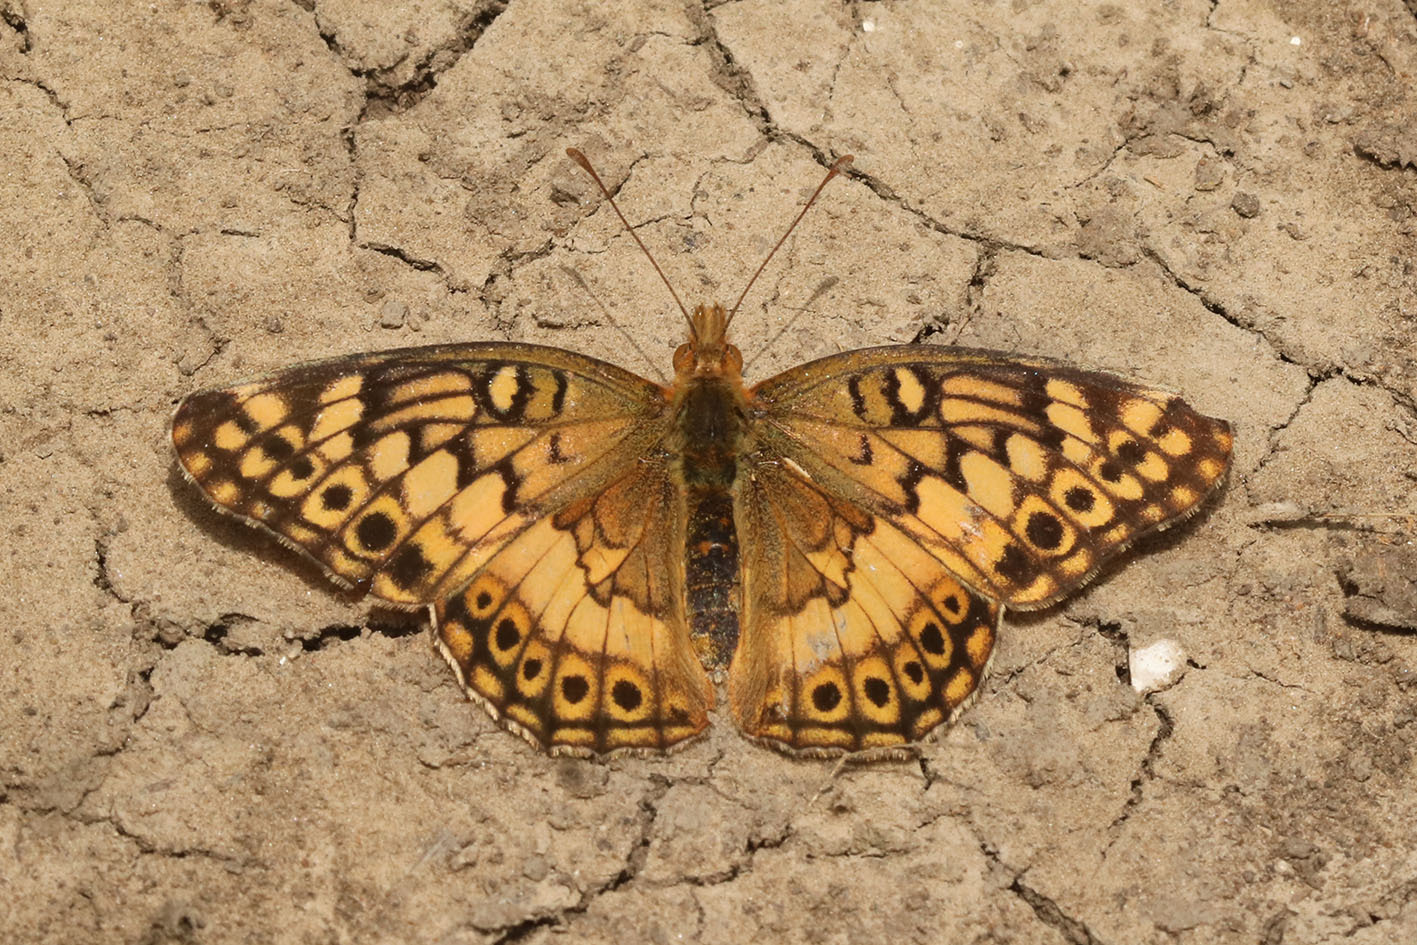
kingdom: Animalia
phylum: Arthropoda
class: Insecta
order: Lepidoptera
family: Nymphalidae
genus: Euptoieta
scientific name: Euptoieta hortensia
